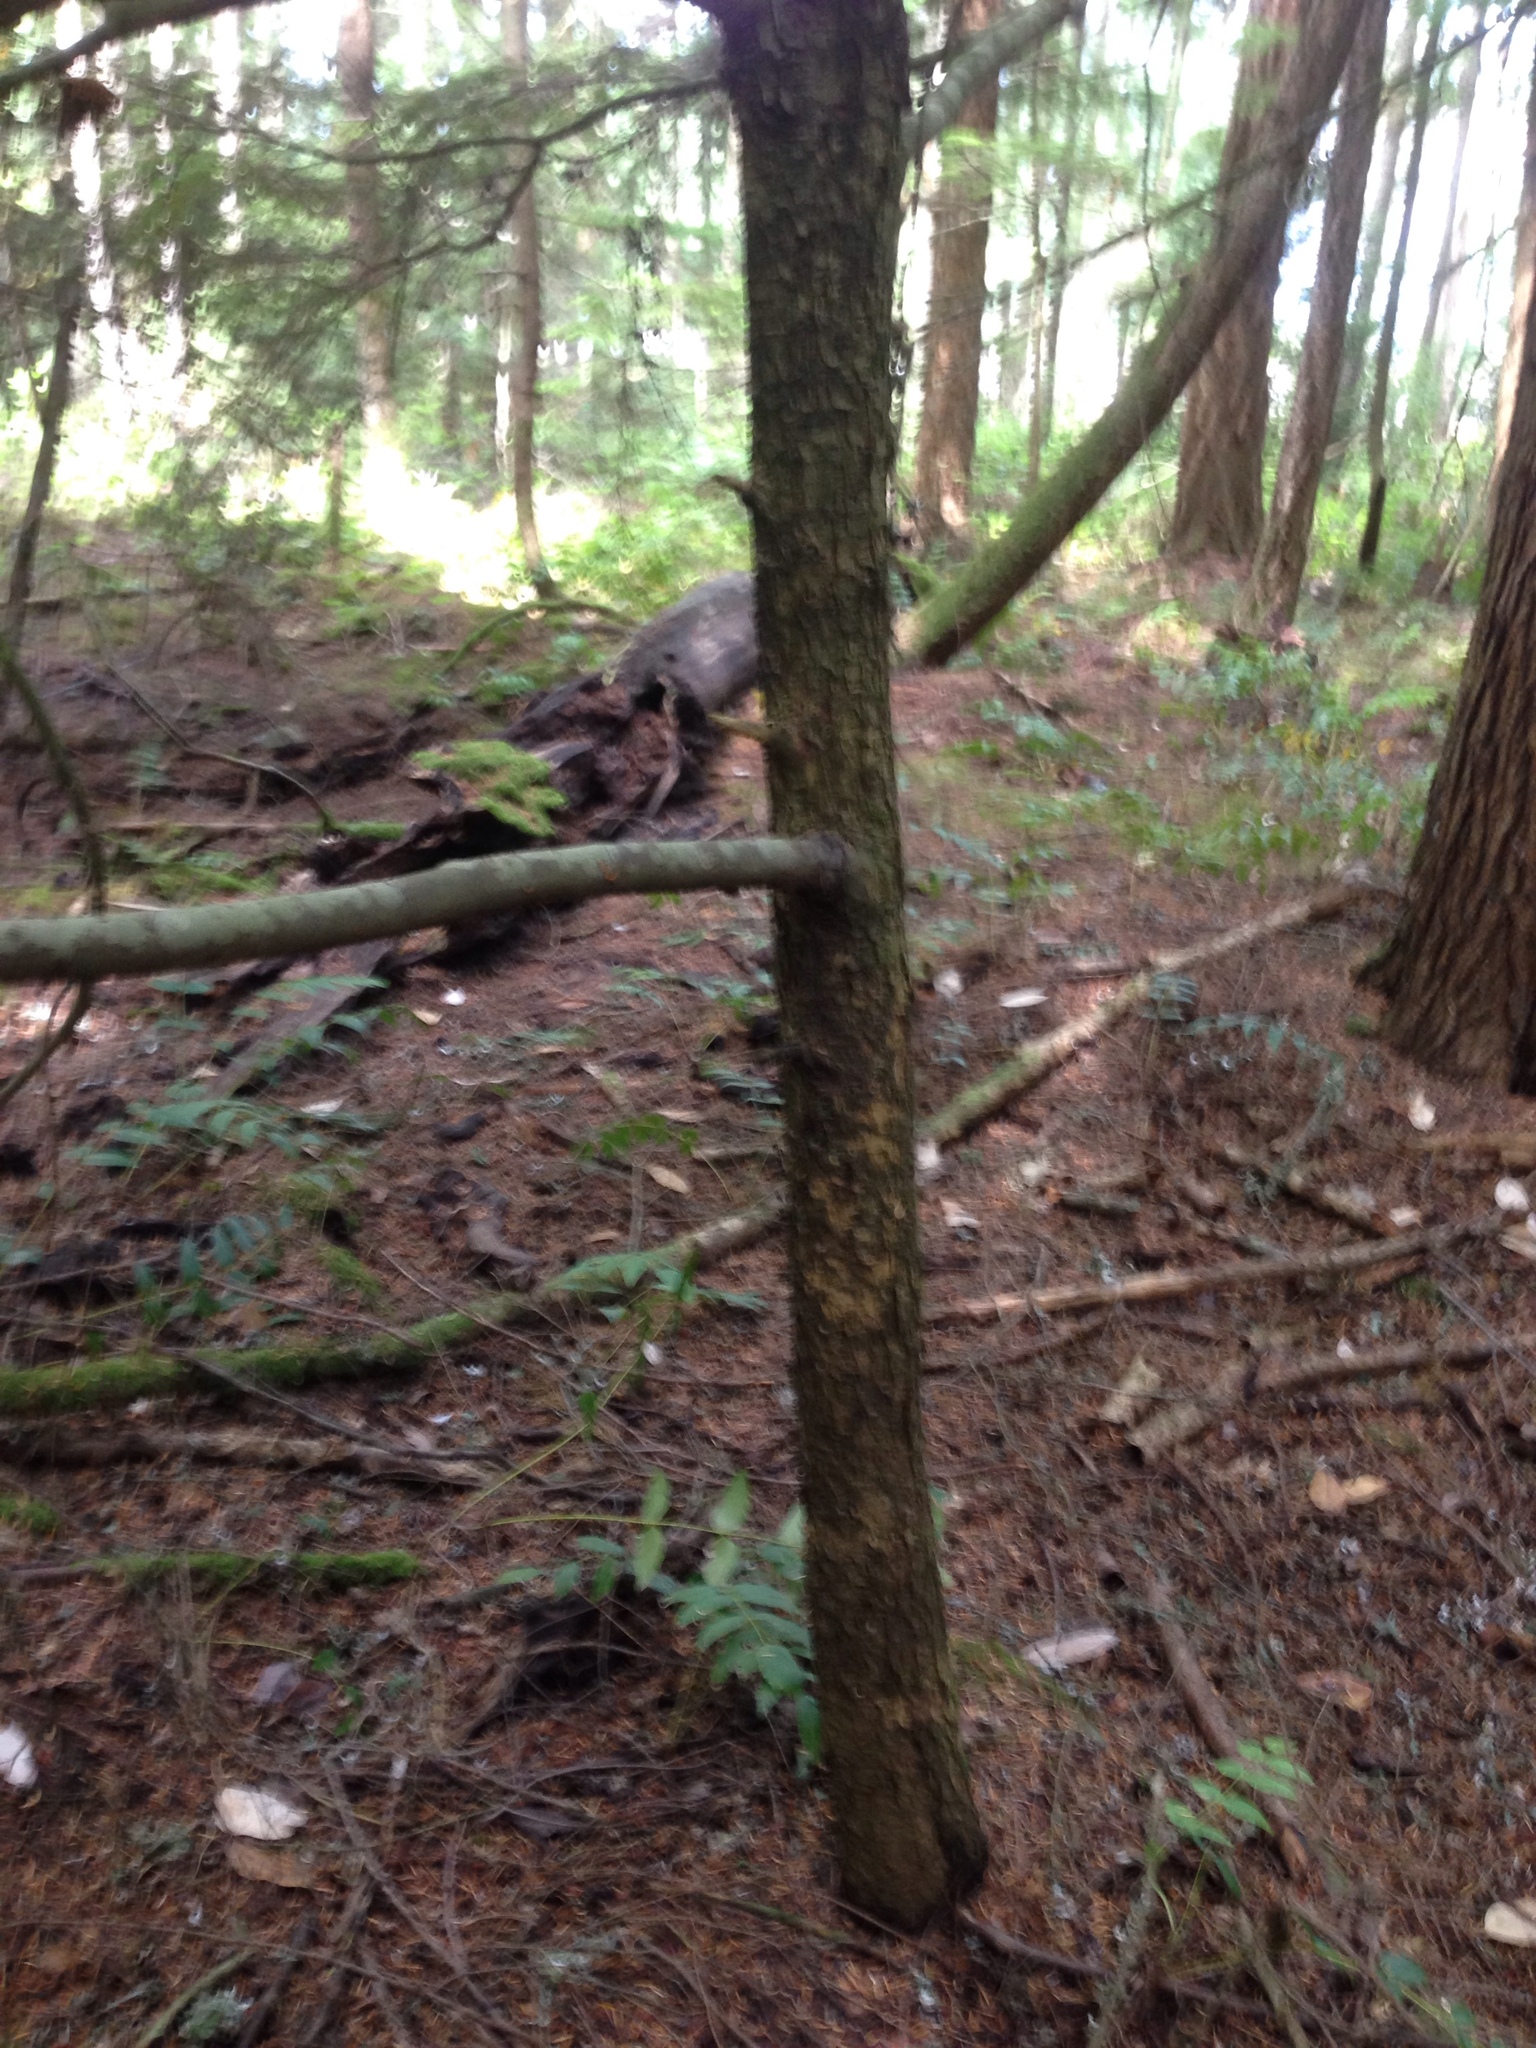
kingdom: Plantae
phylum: Tracheophyta
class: Pinopsida
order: Pinales
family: Pinaceae
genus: Tsuga
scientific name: Tsuga heterophylla
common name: Western hemlock
